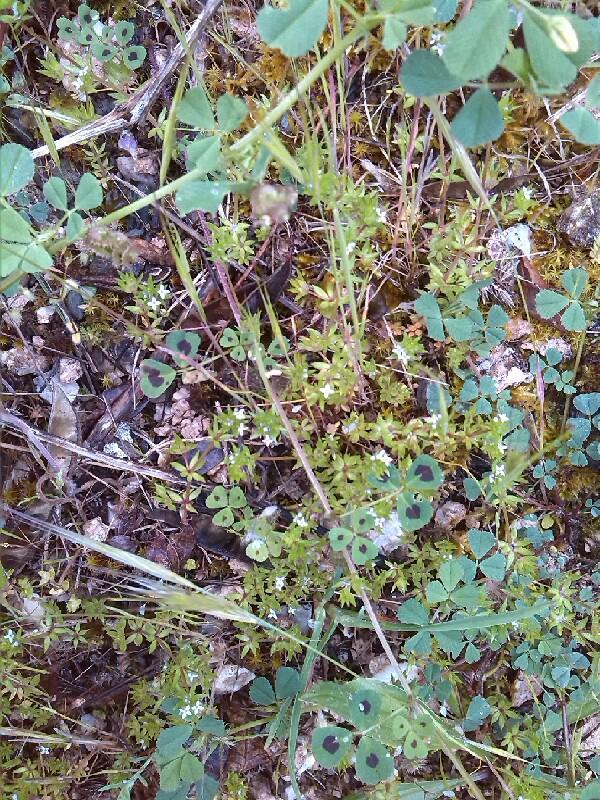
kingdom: Plantae
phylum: Tracheophyta
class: Magnoliopsida
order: Gentianales
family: Rubiaceae
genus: Sherardia
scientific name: Sherardia arvensis
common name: Field madder
